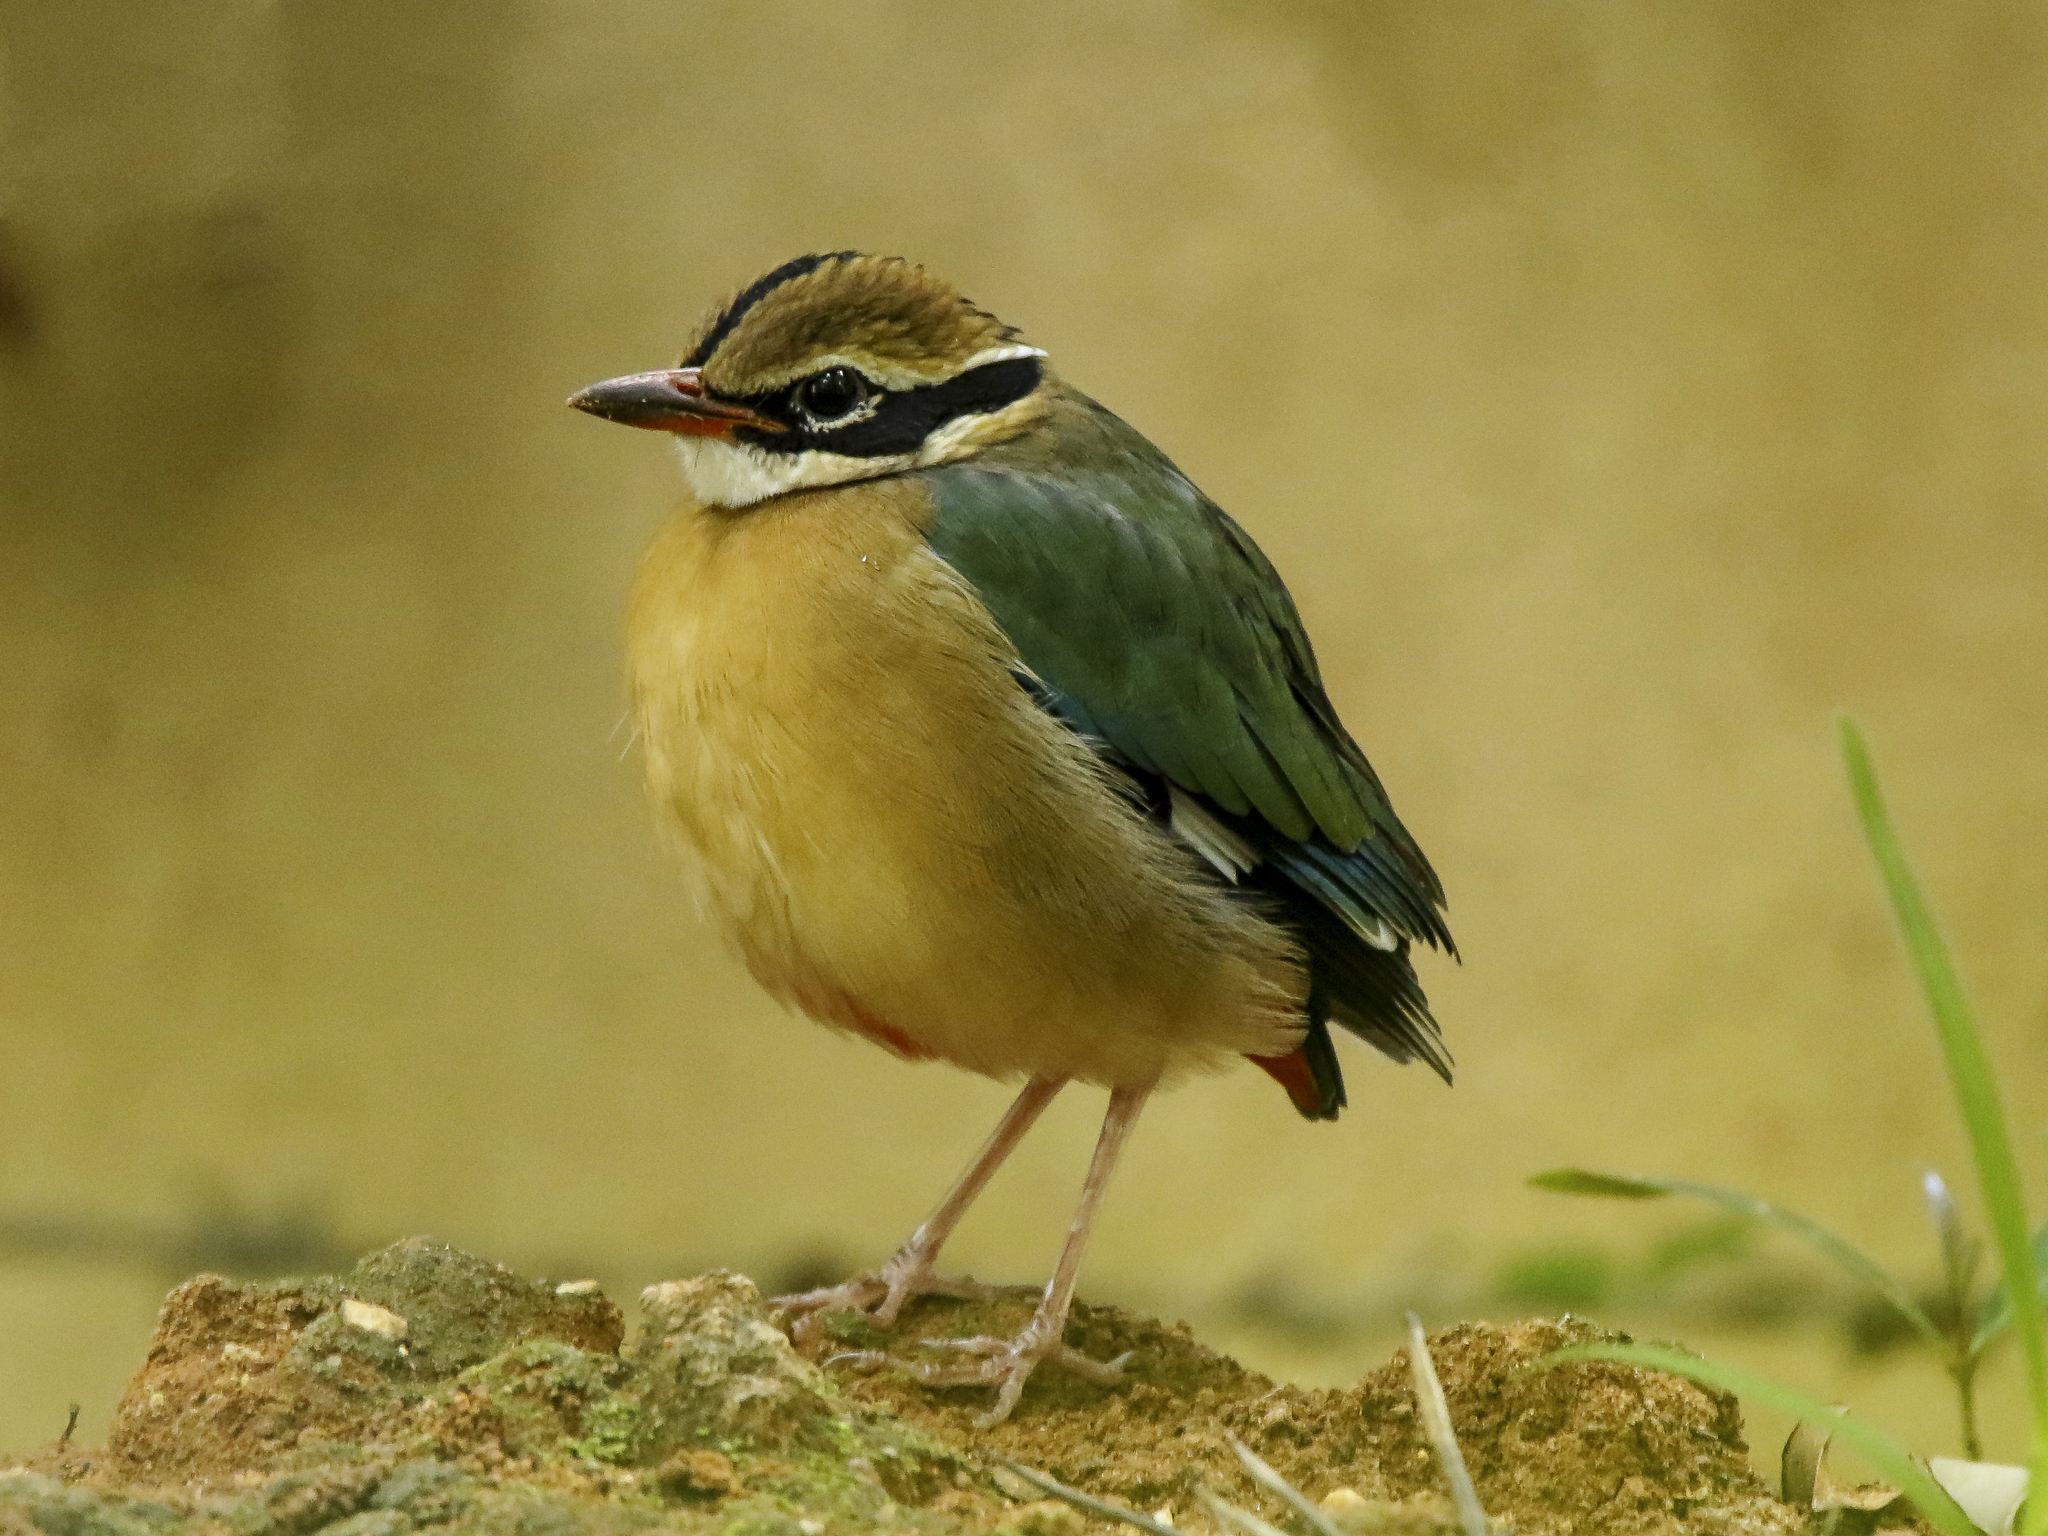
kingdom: Animalia
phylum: Chordata
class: Aves
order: Passeriformes
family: Pittidae
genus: Pitta
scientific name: Pitta brachyura
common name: Indian pitta
